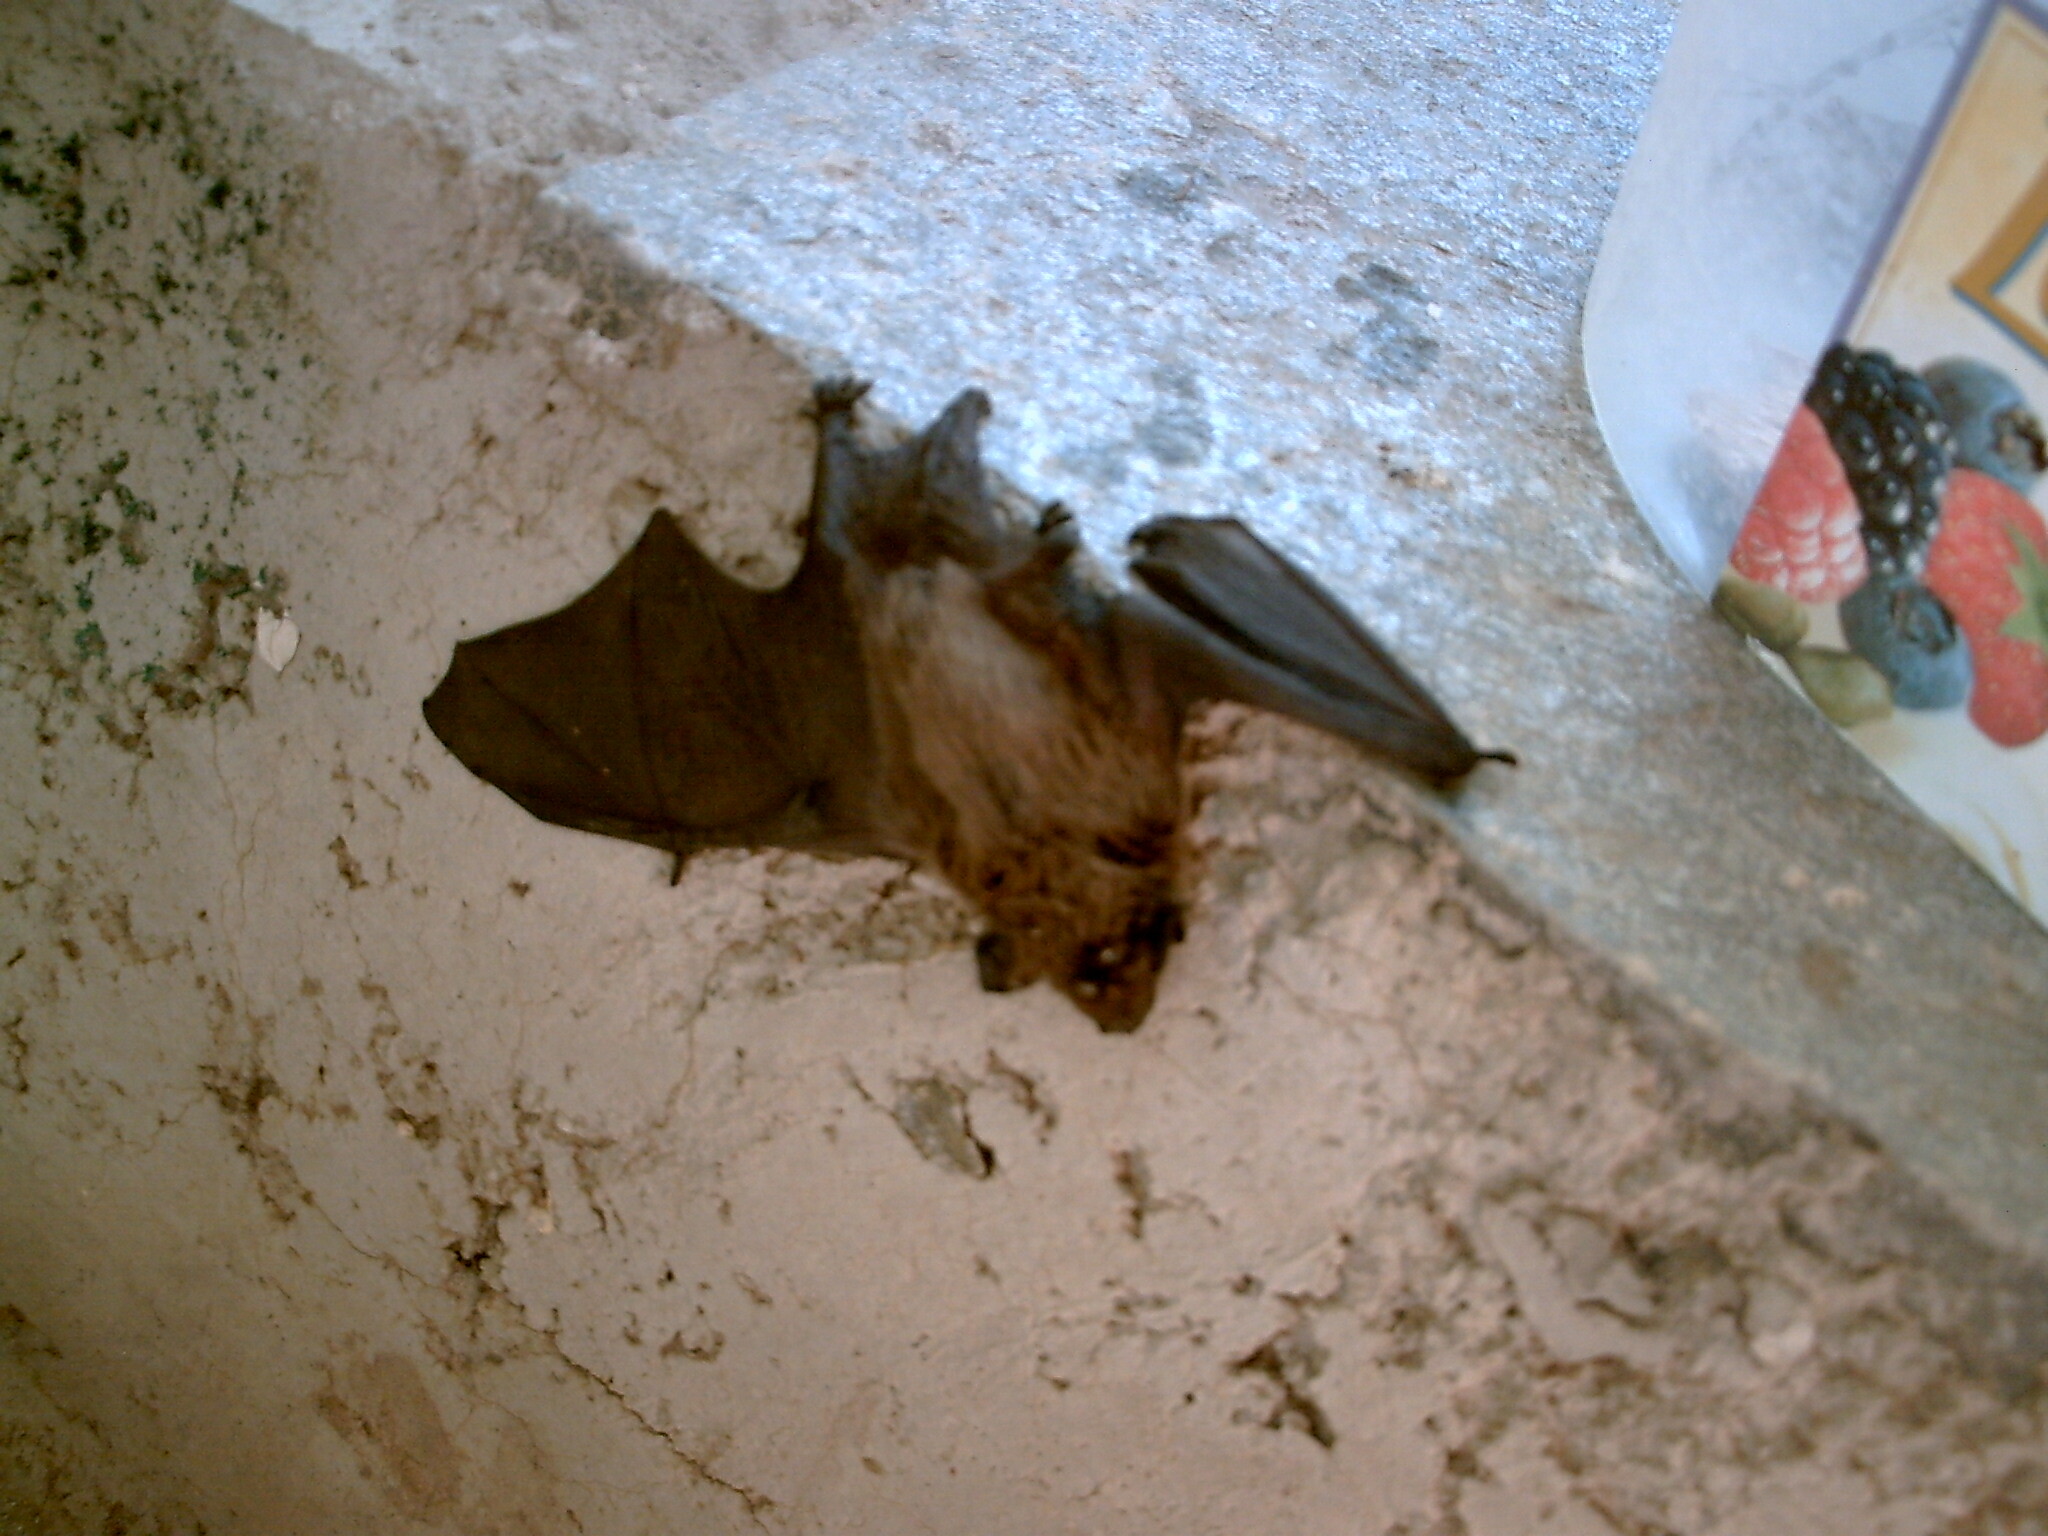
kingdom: Animalia
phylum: Chordata
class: Mammalia
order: Chiroptera
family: Vespertilionidae
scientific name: Vespertilionidae
